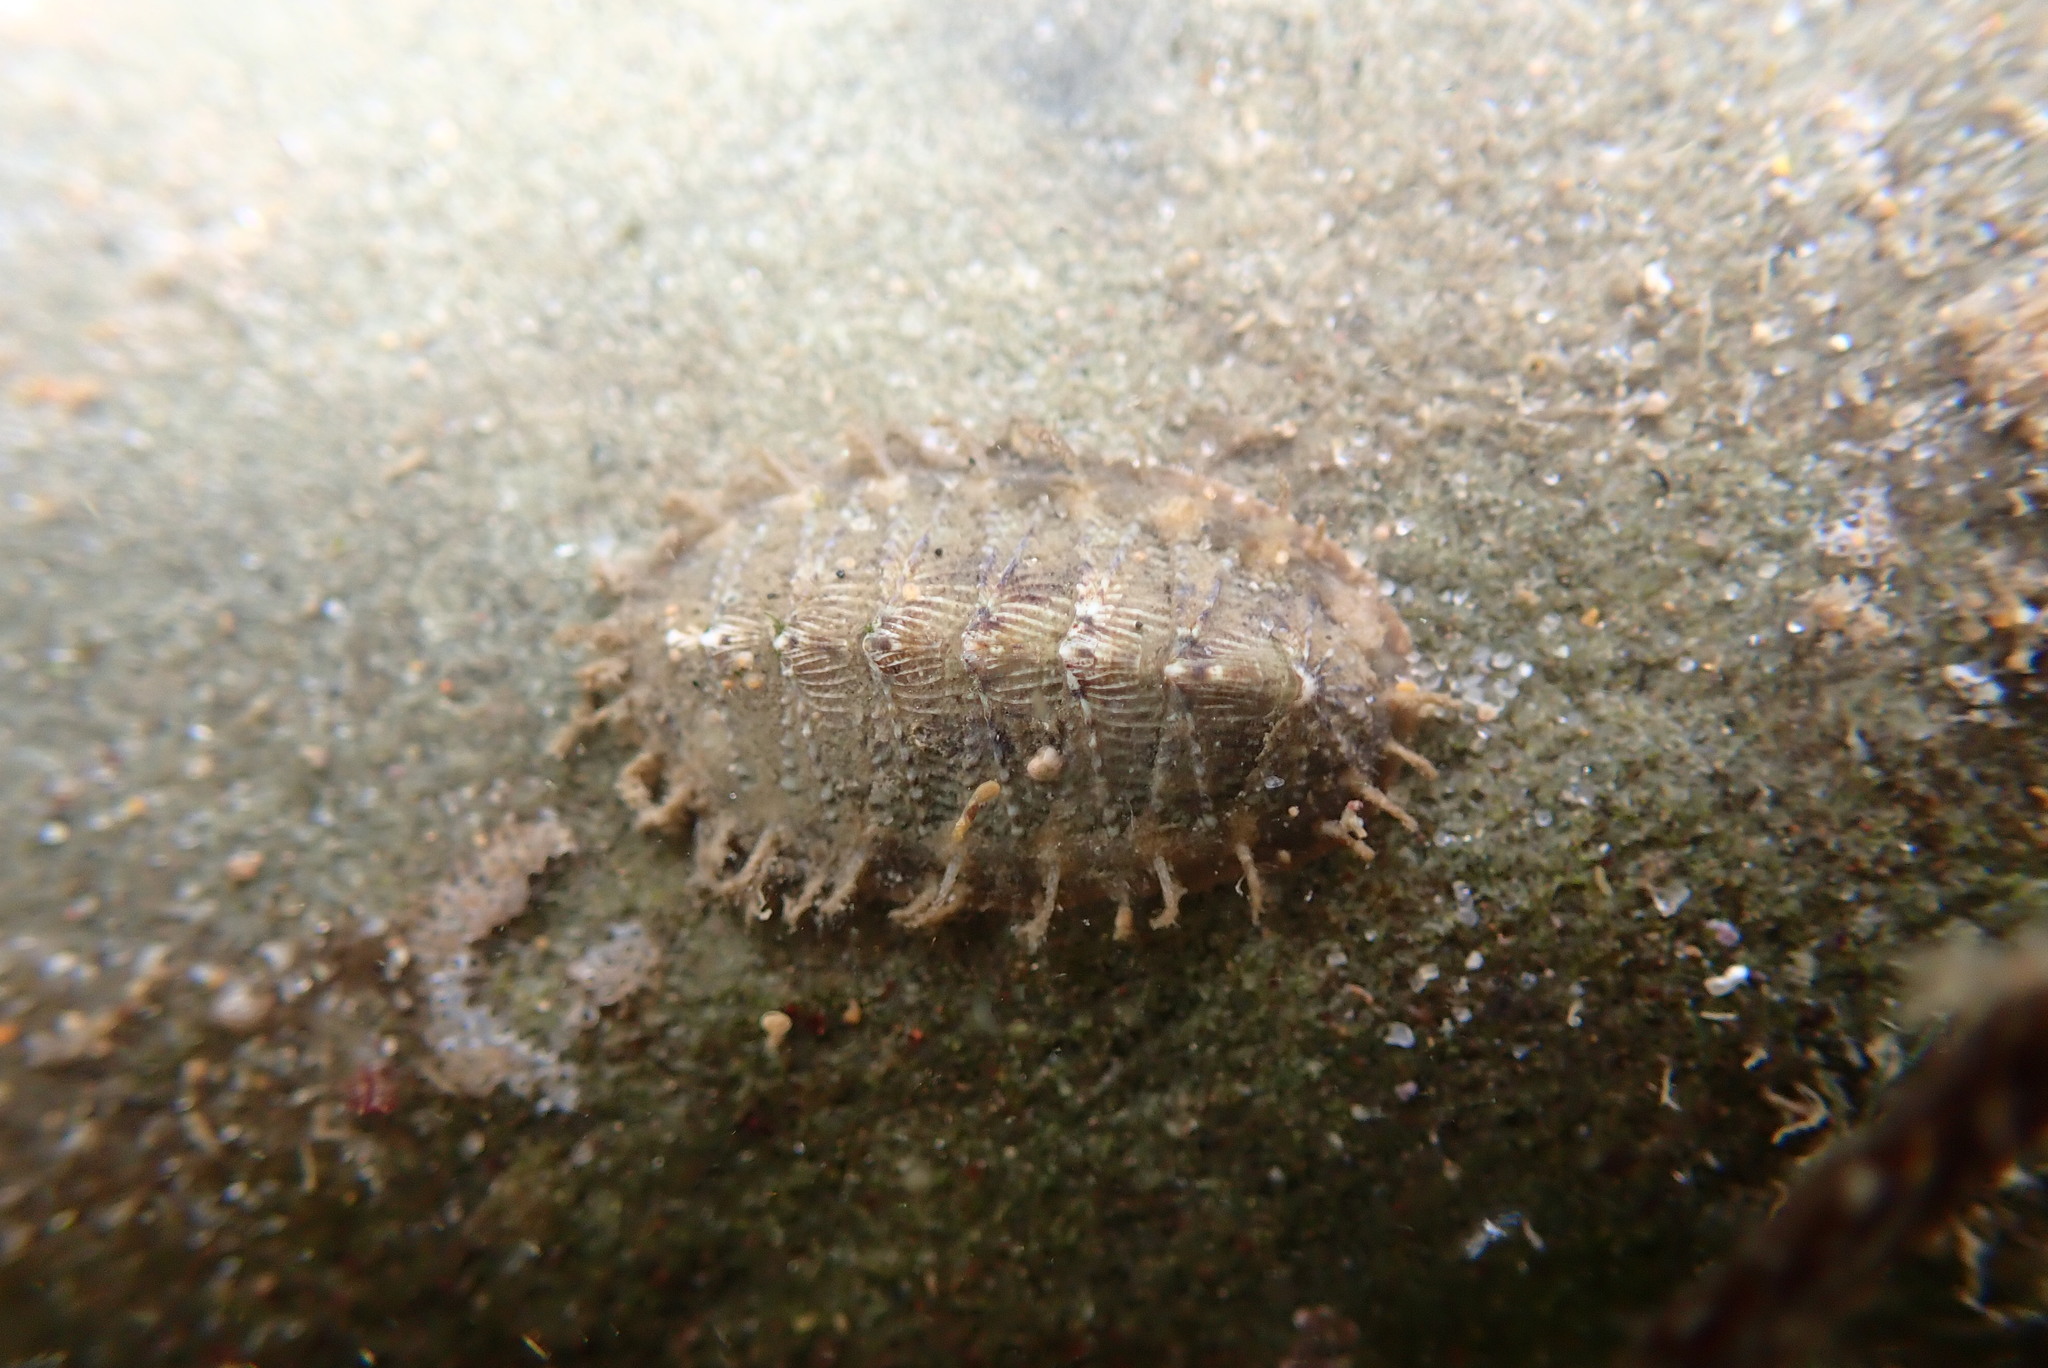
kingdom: Animalia
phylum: Mollusca
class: Polyplacophora
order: Chitonida
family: Mopaliidae
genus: Mopalia
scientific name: Mopalia porifera
